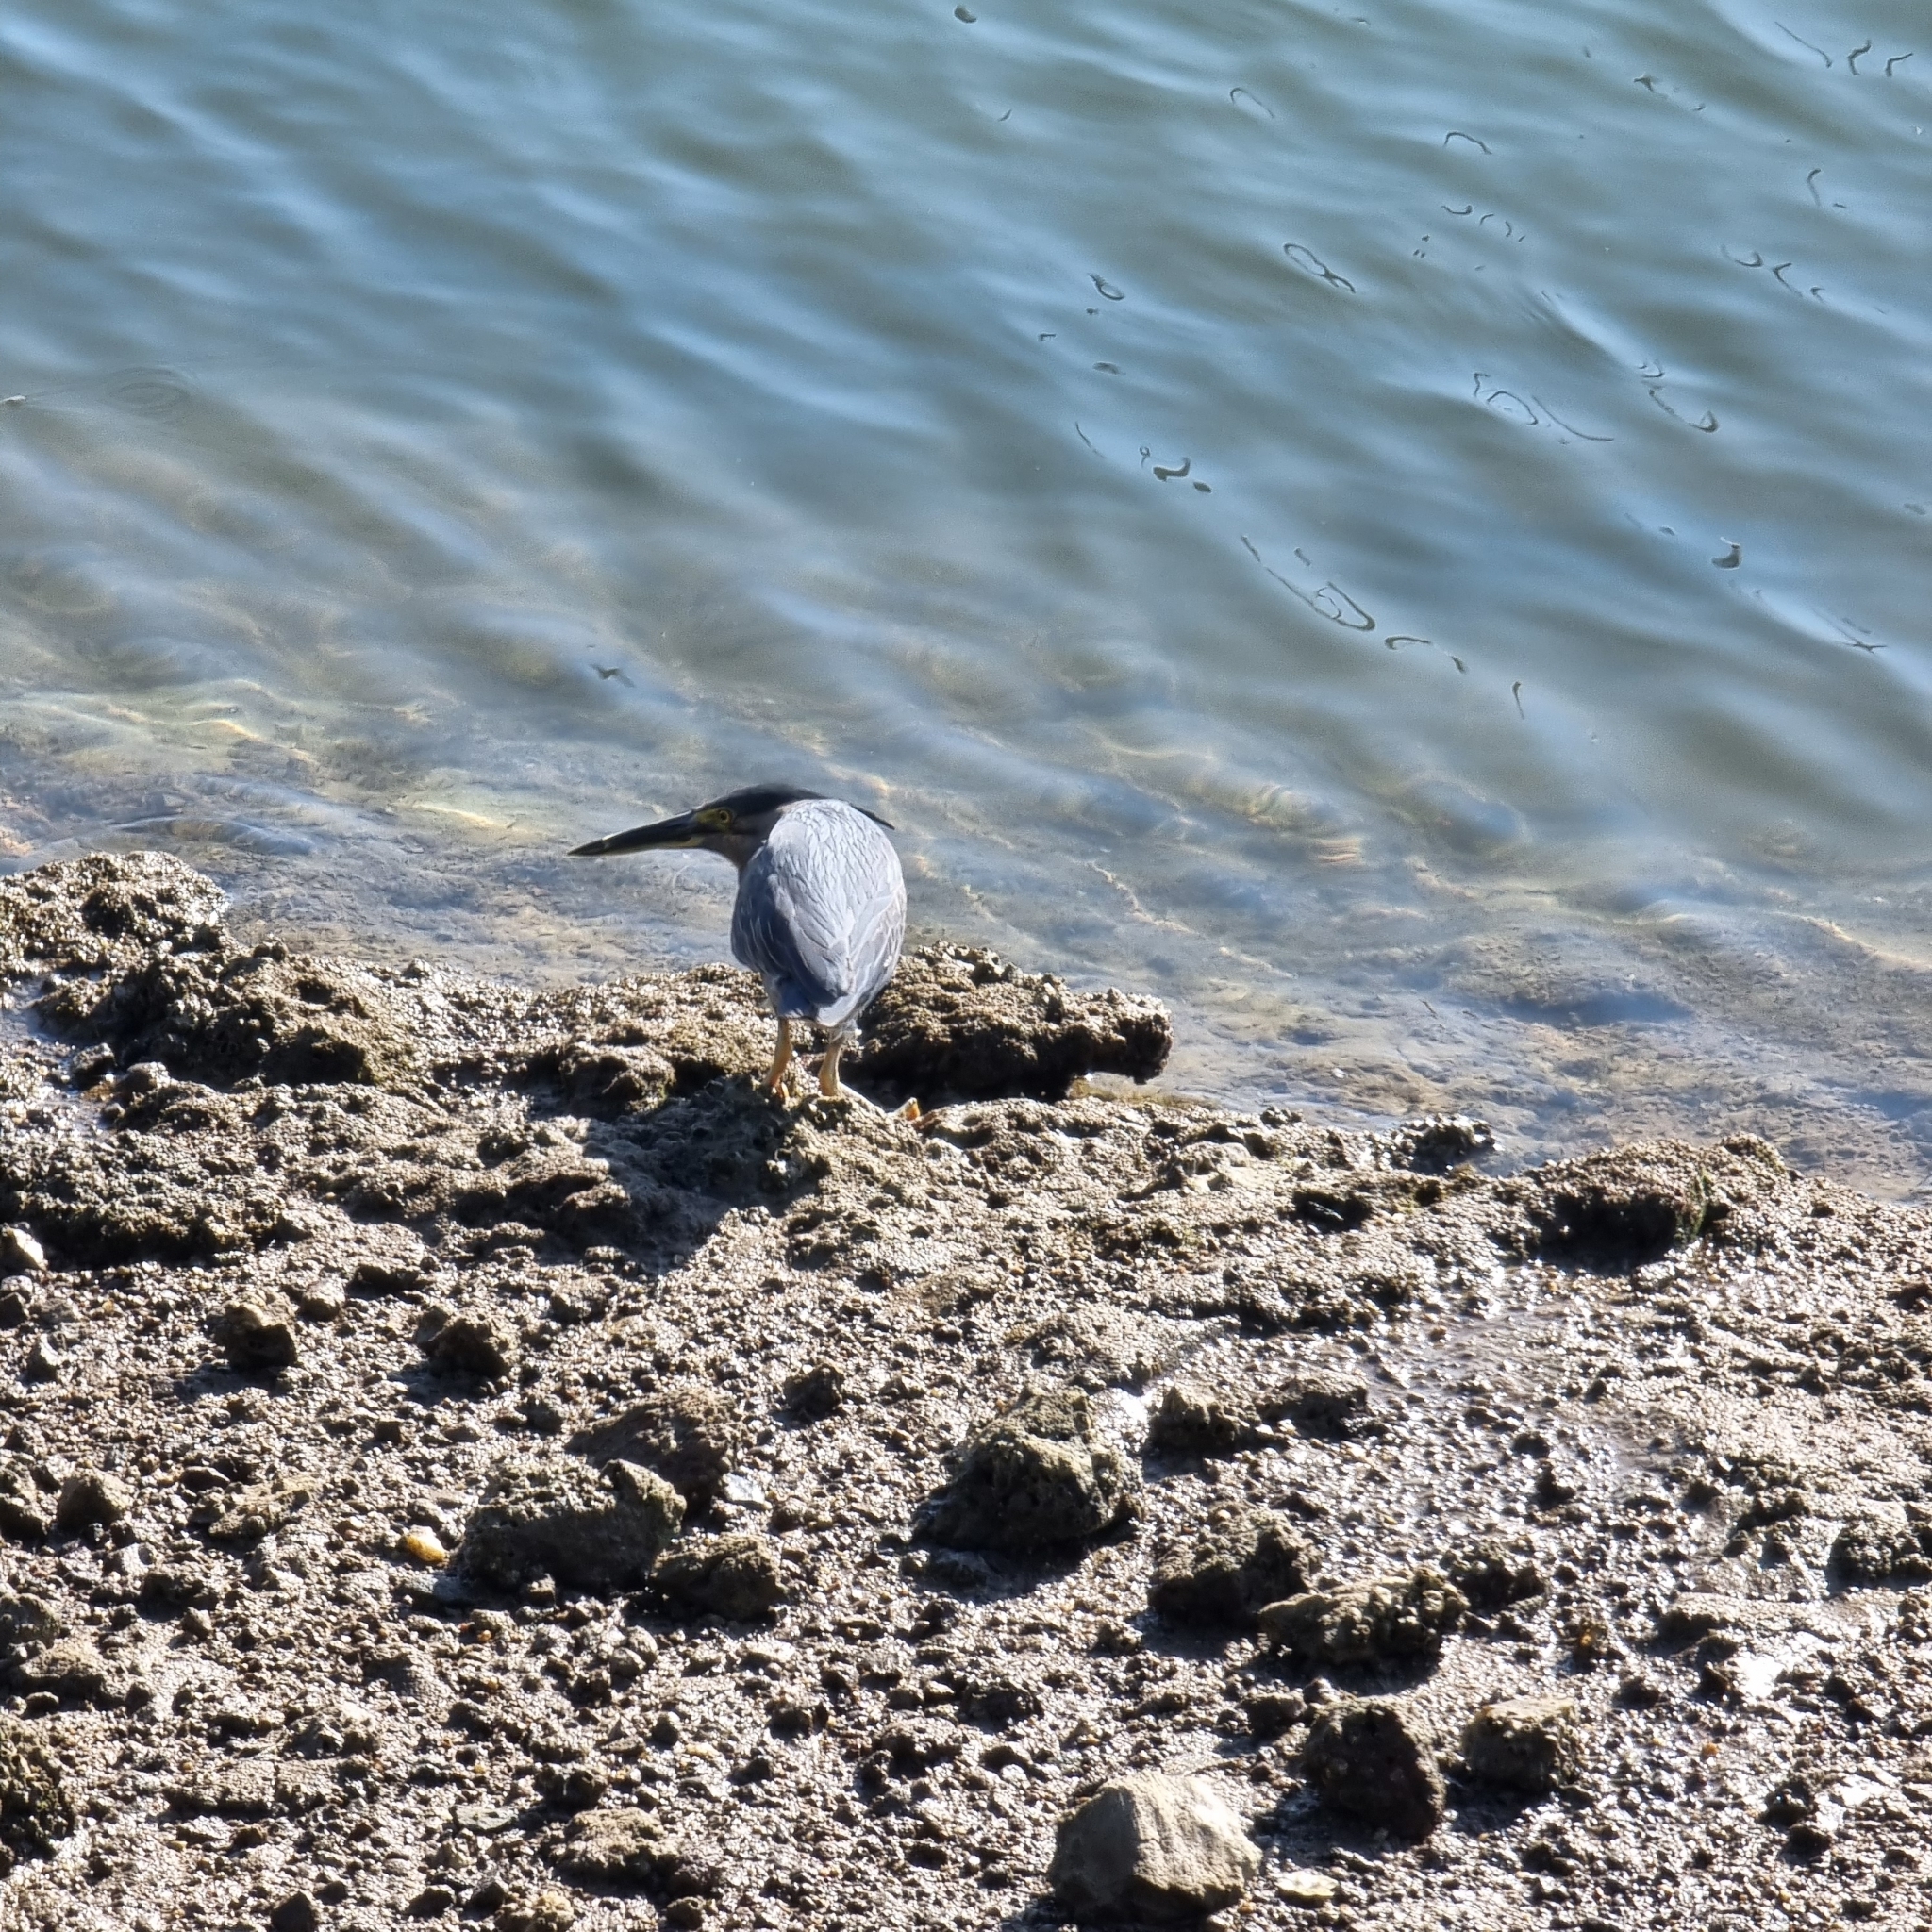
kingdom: Animalia
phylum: Chordata
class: Aves
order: Pelecaniformes
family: Ardeidae
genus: Butorides
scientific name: Butorides striata
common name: Striated heron
